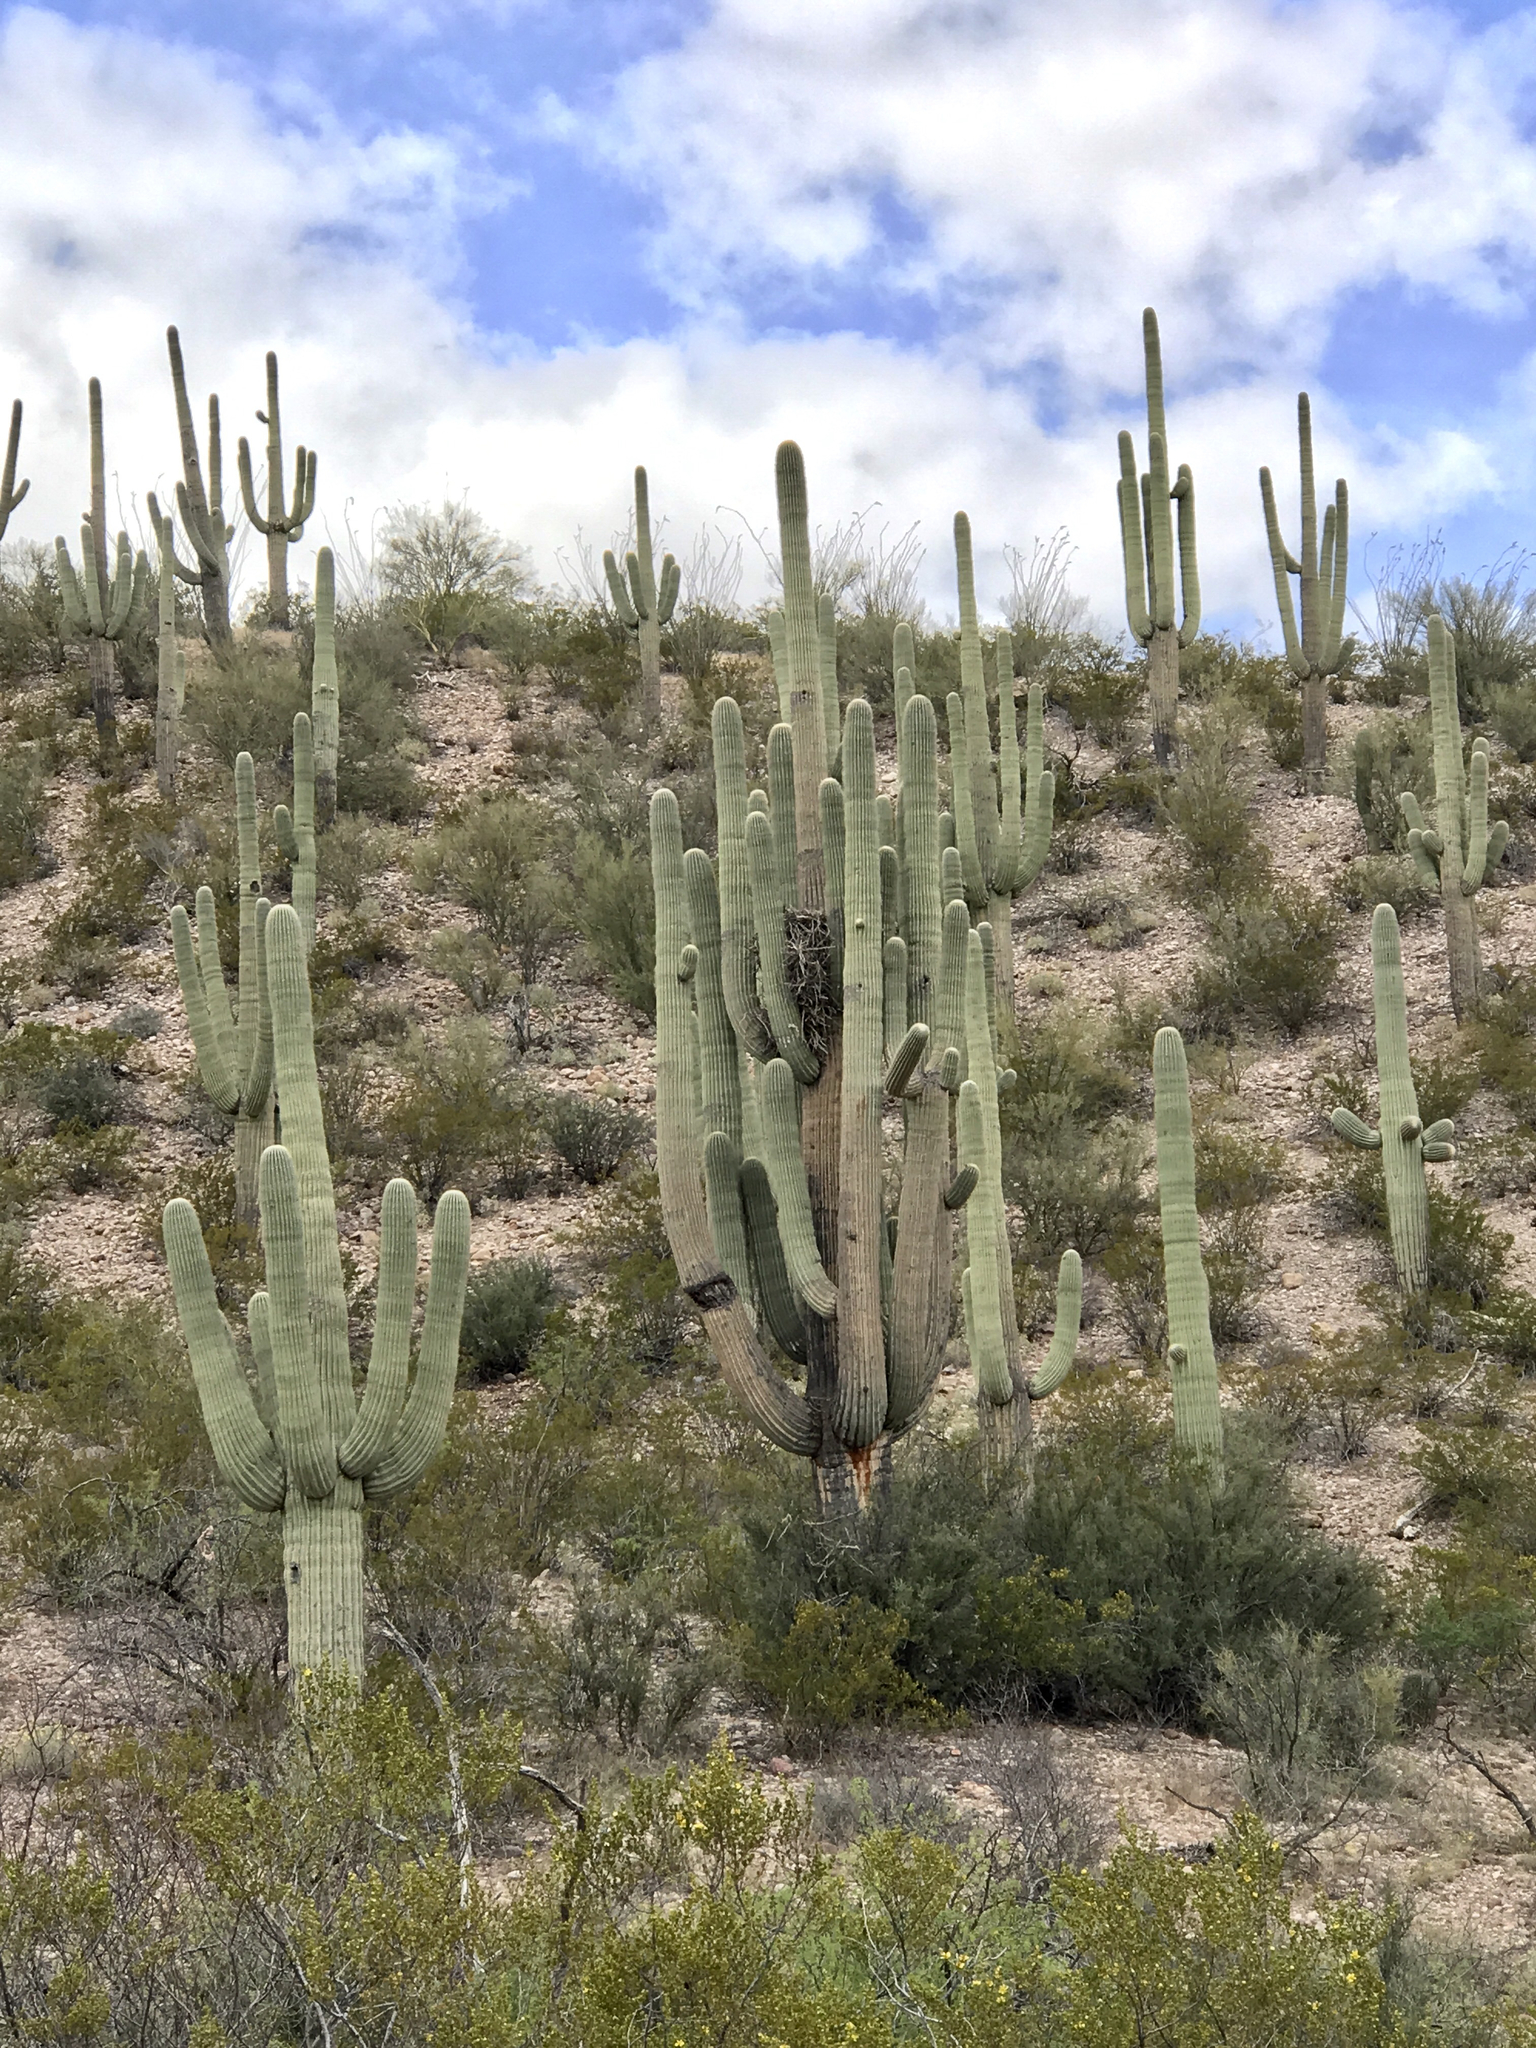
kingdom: Plantae
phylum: Tracheophyta
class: Magnoliopsida
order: Caryophyllales
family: Cactaceae
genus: Carnegiea
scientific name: Carnegiea gigantea
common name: Saguaro
